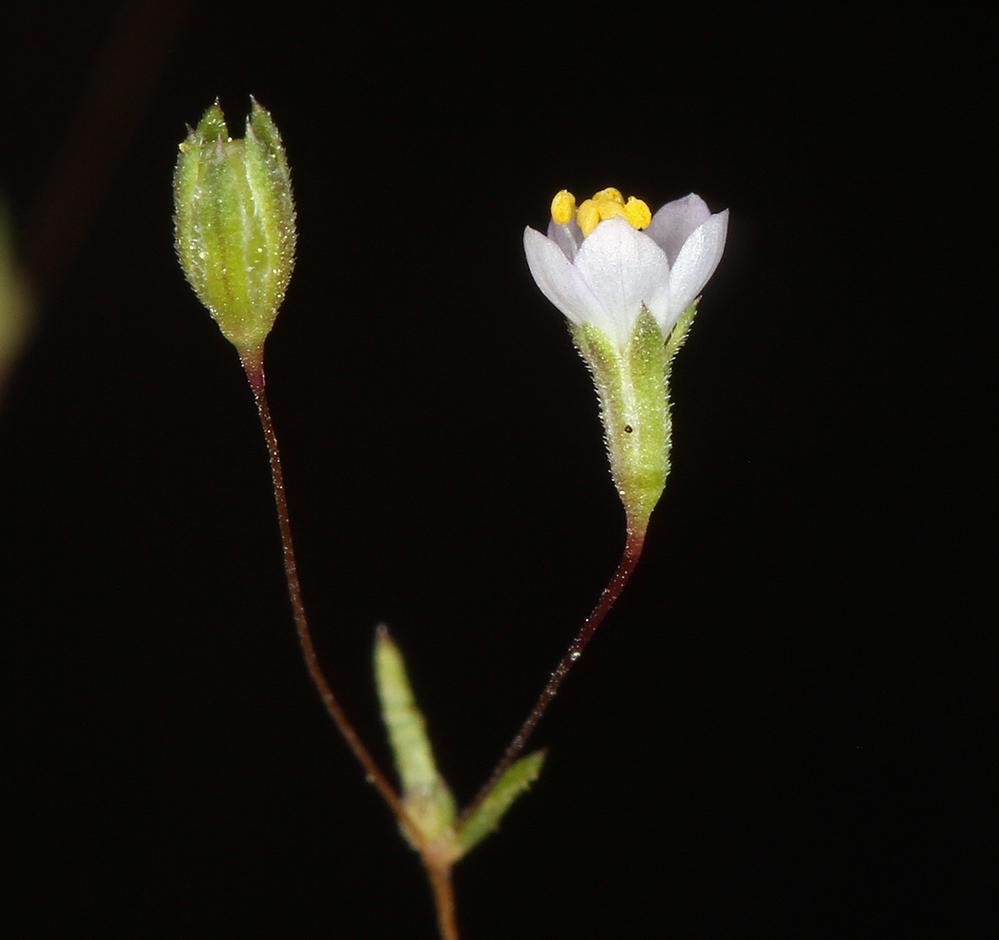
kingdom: Plantae
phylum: Tracheophyta
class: Magnoliopsida
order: Ericales
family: Polemoniaceae
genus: Leptosiphon
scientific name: Leptosiphon septentrionalis
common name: Northern linanthus
